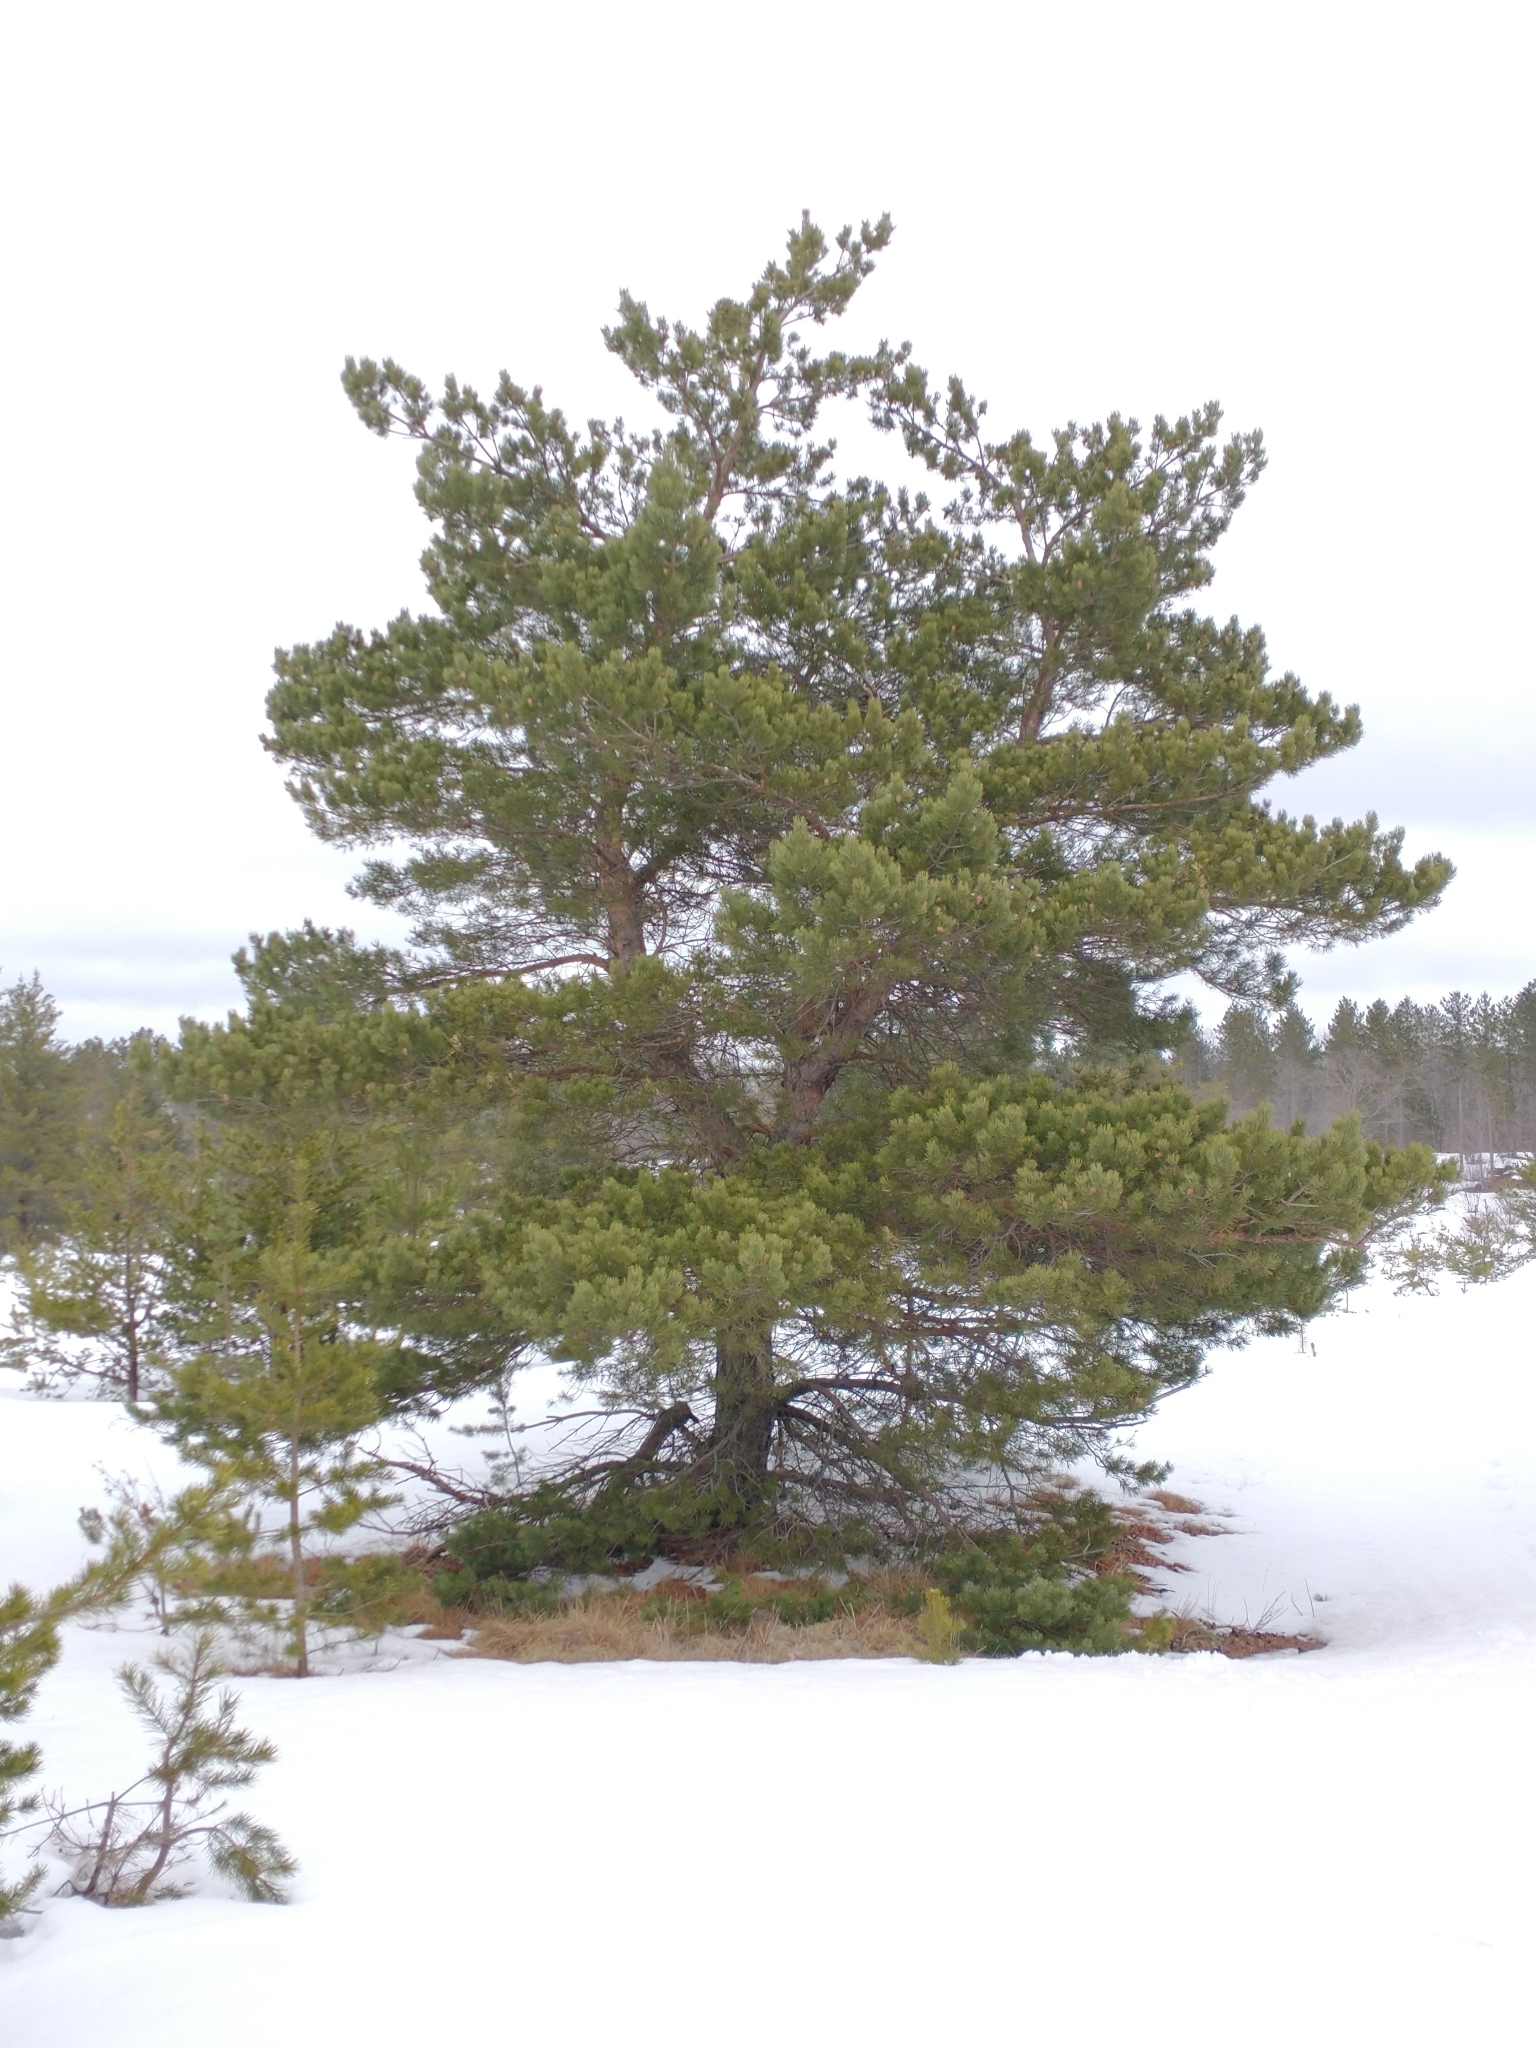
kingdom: Plantae
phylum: Tracheophyta
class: Pinopsida
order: Pinales
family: Pinaceae
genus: Pinus
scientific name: Pinus sylvestris
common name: Scots pine
